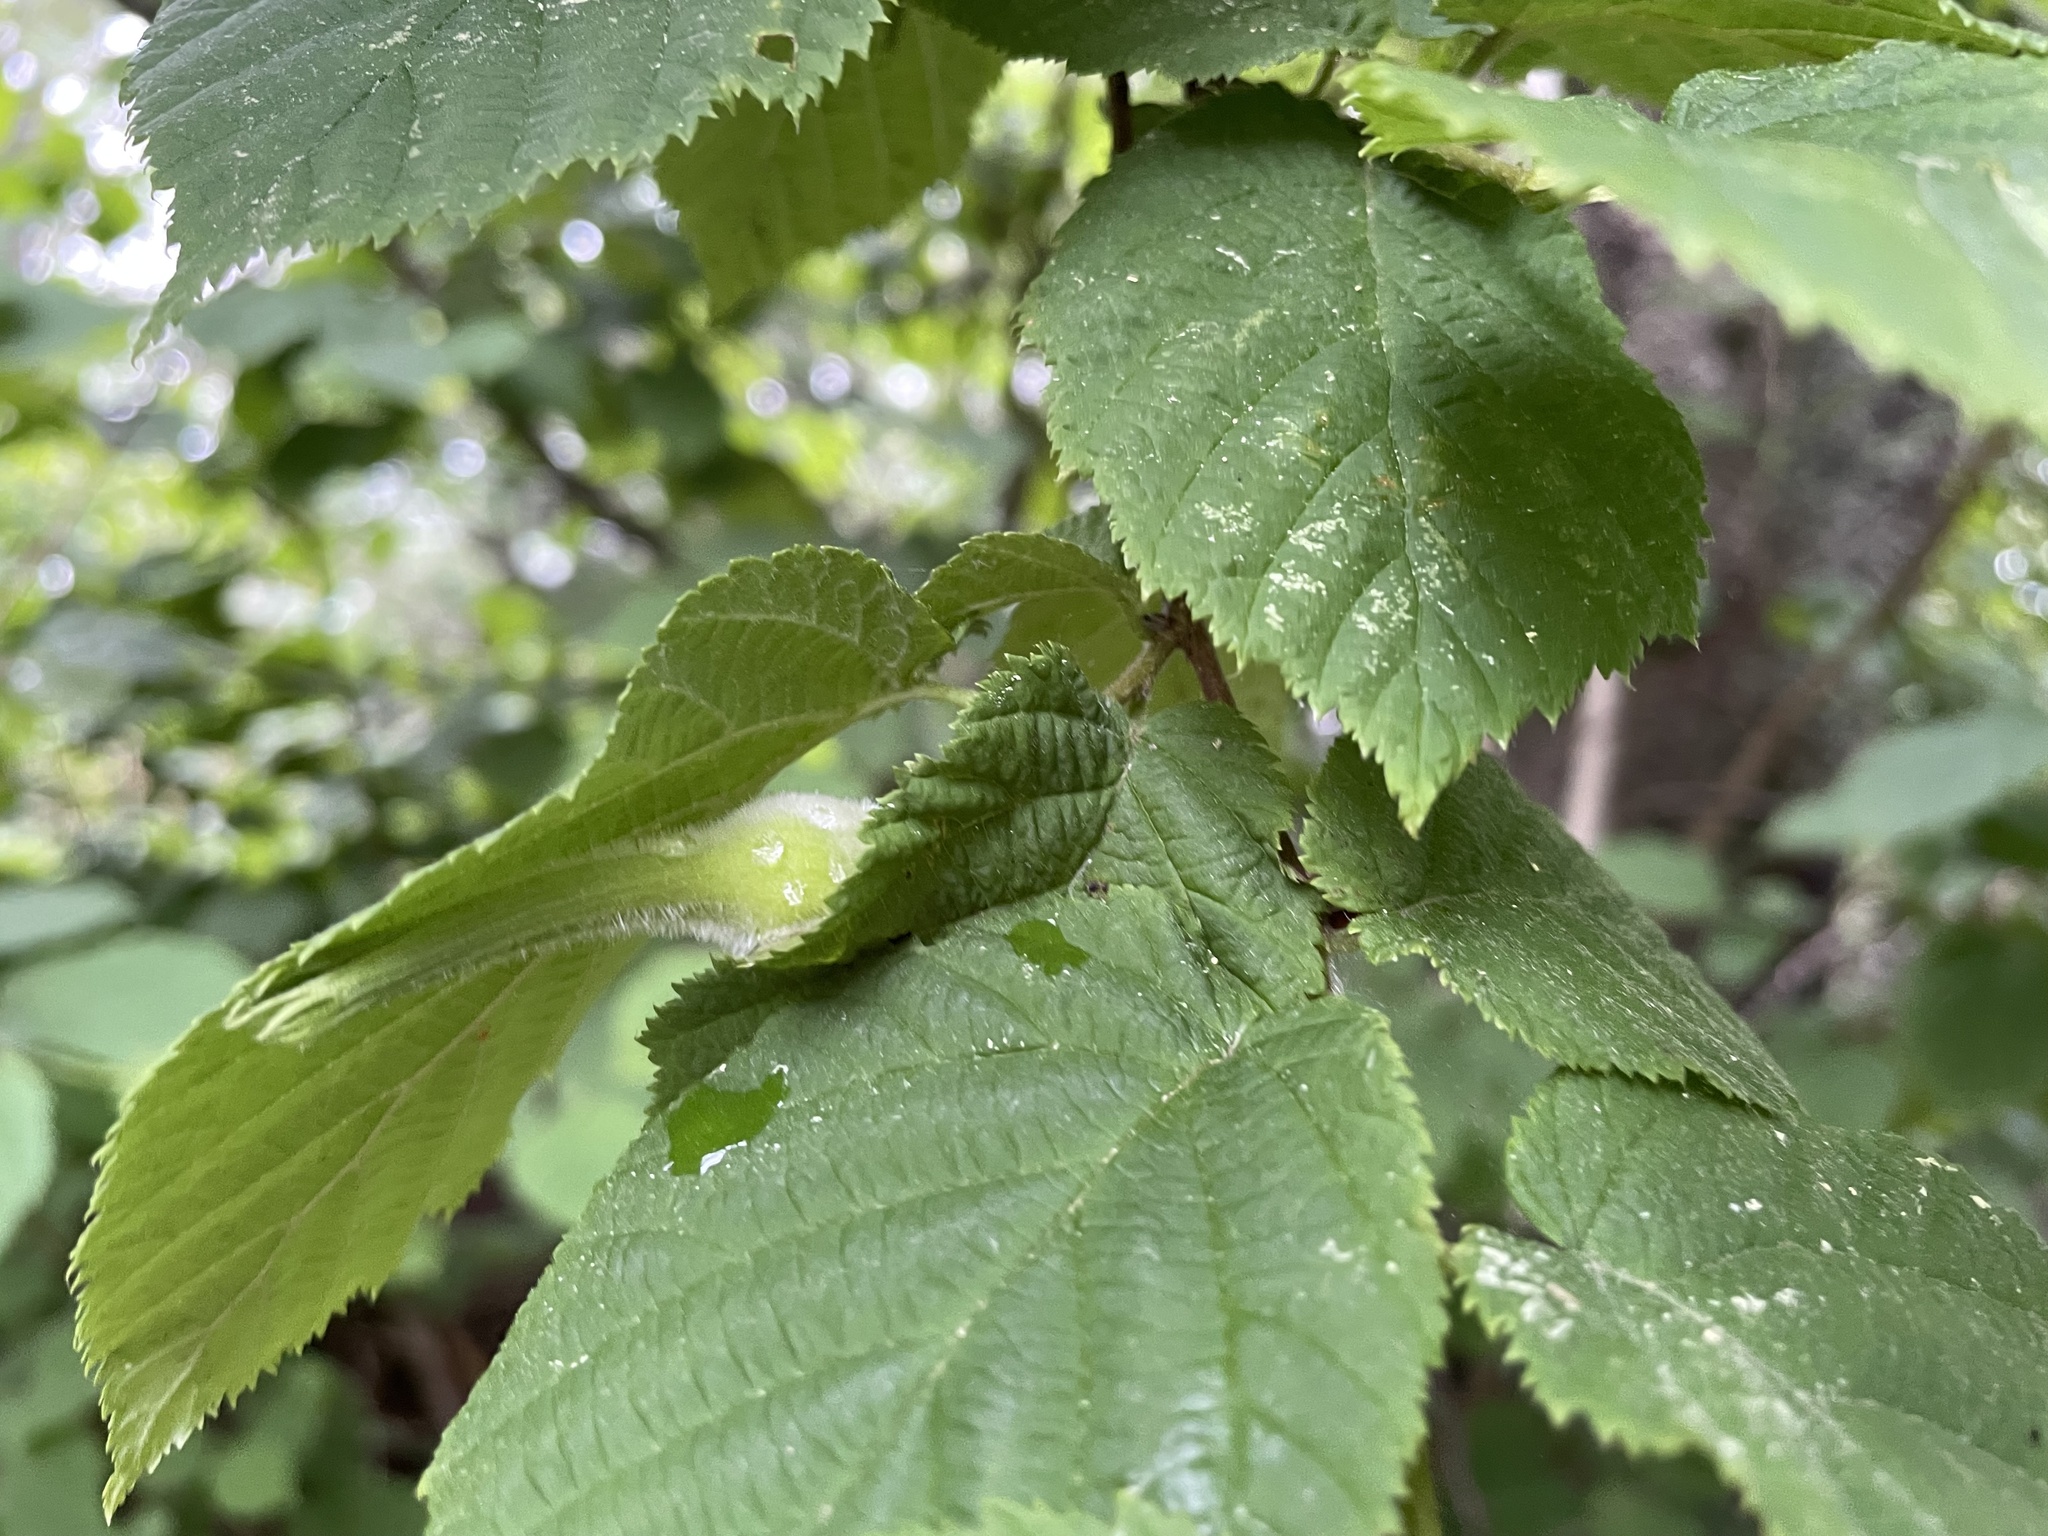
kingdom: Plantae
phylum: Tracheophyta
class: Magnoliopsida
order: Fagales
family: Betulaceae
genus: Corylus
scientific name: Corylus cornuta
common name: Beaked hazel
